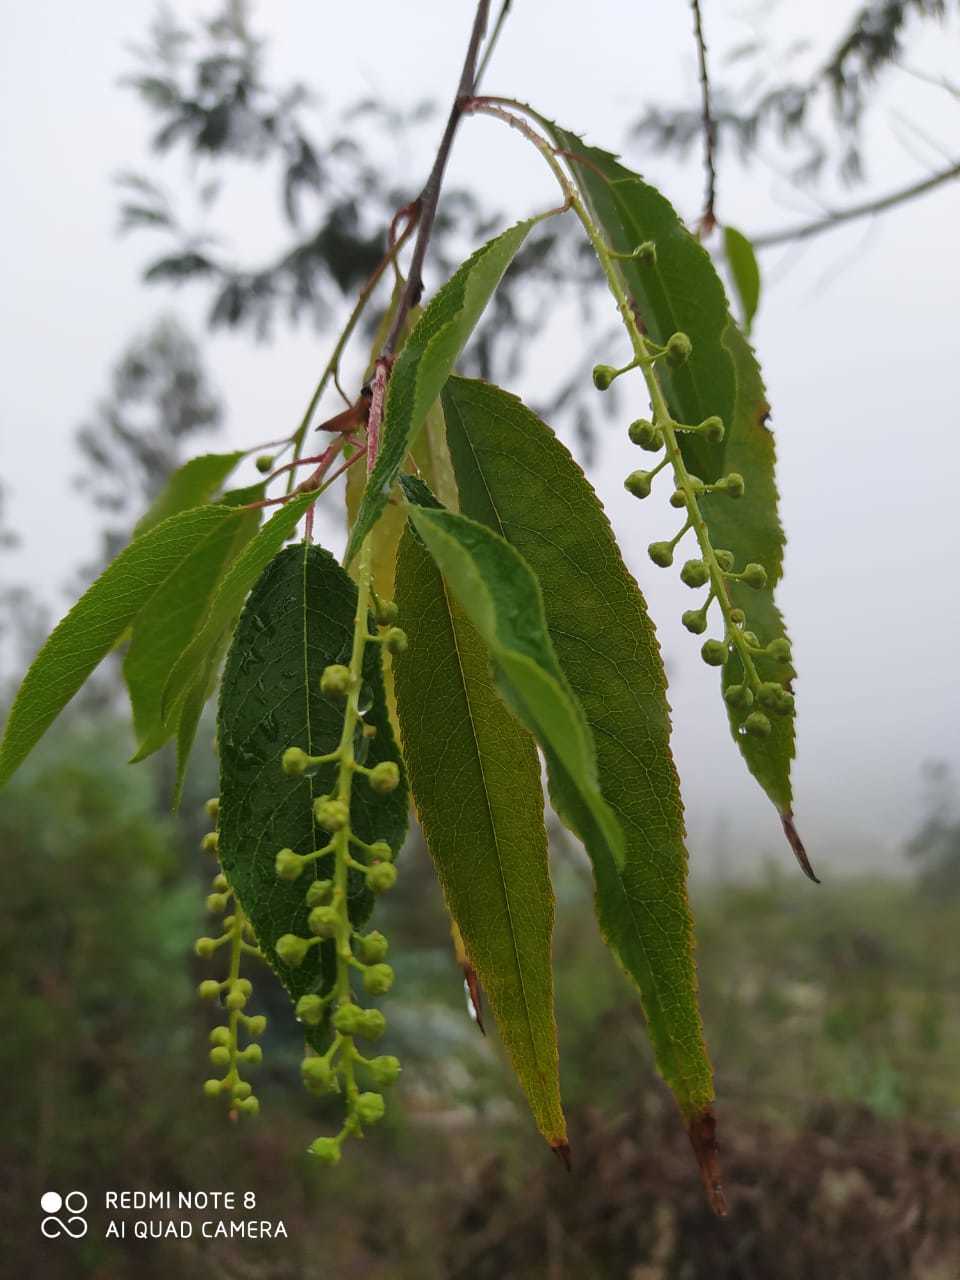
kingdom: Plantae
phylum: Tracheophyta
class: Magnoliopsida
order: Rosales
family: Rosaceae
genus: Prunus
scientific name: Prunus serotina
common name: Black cherry
